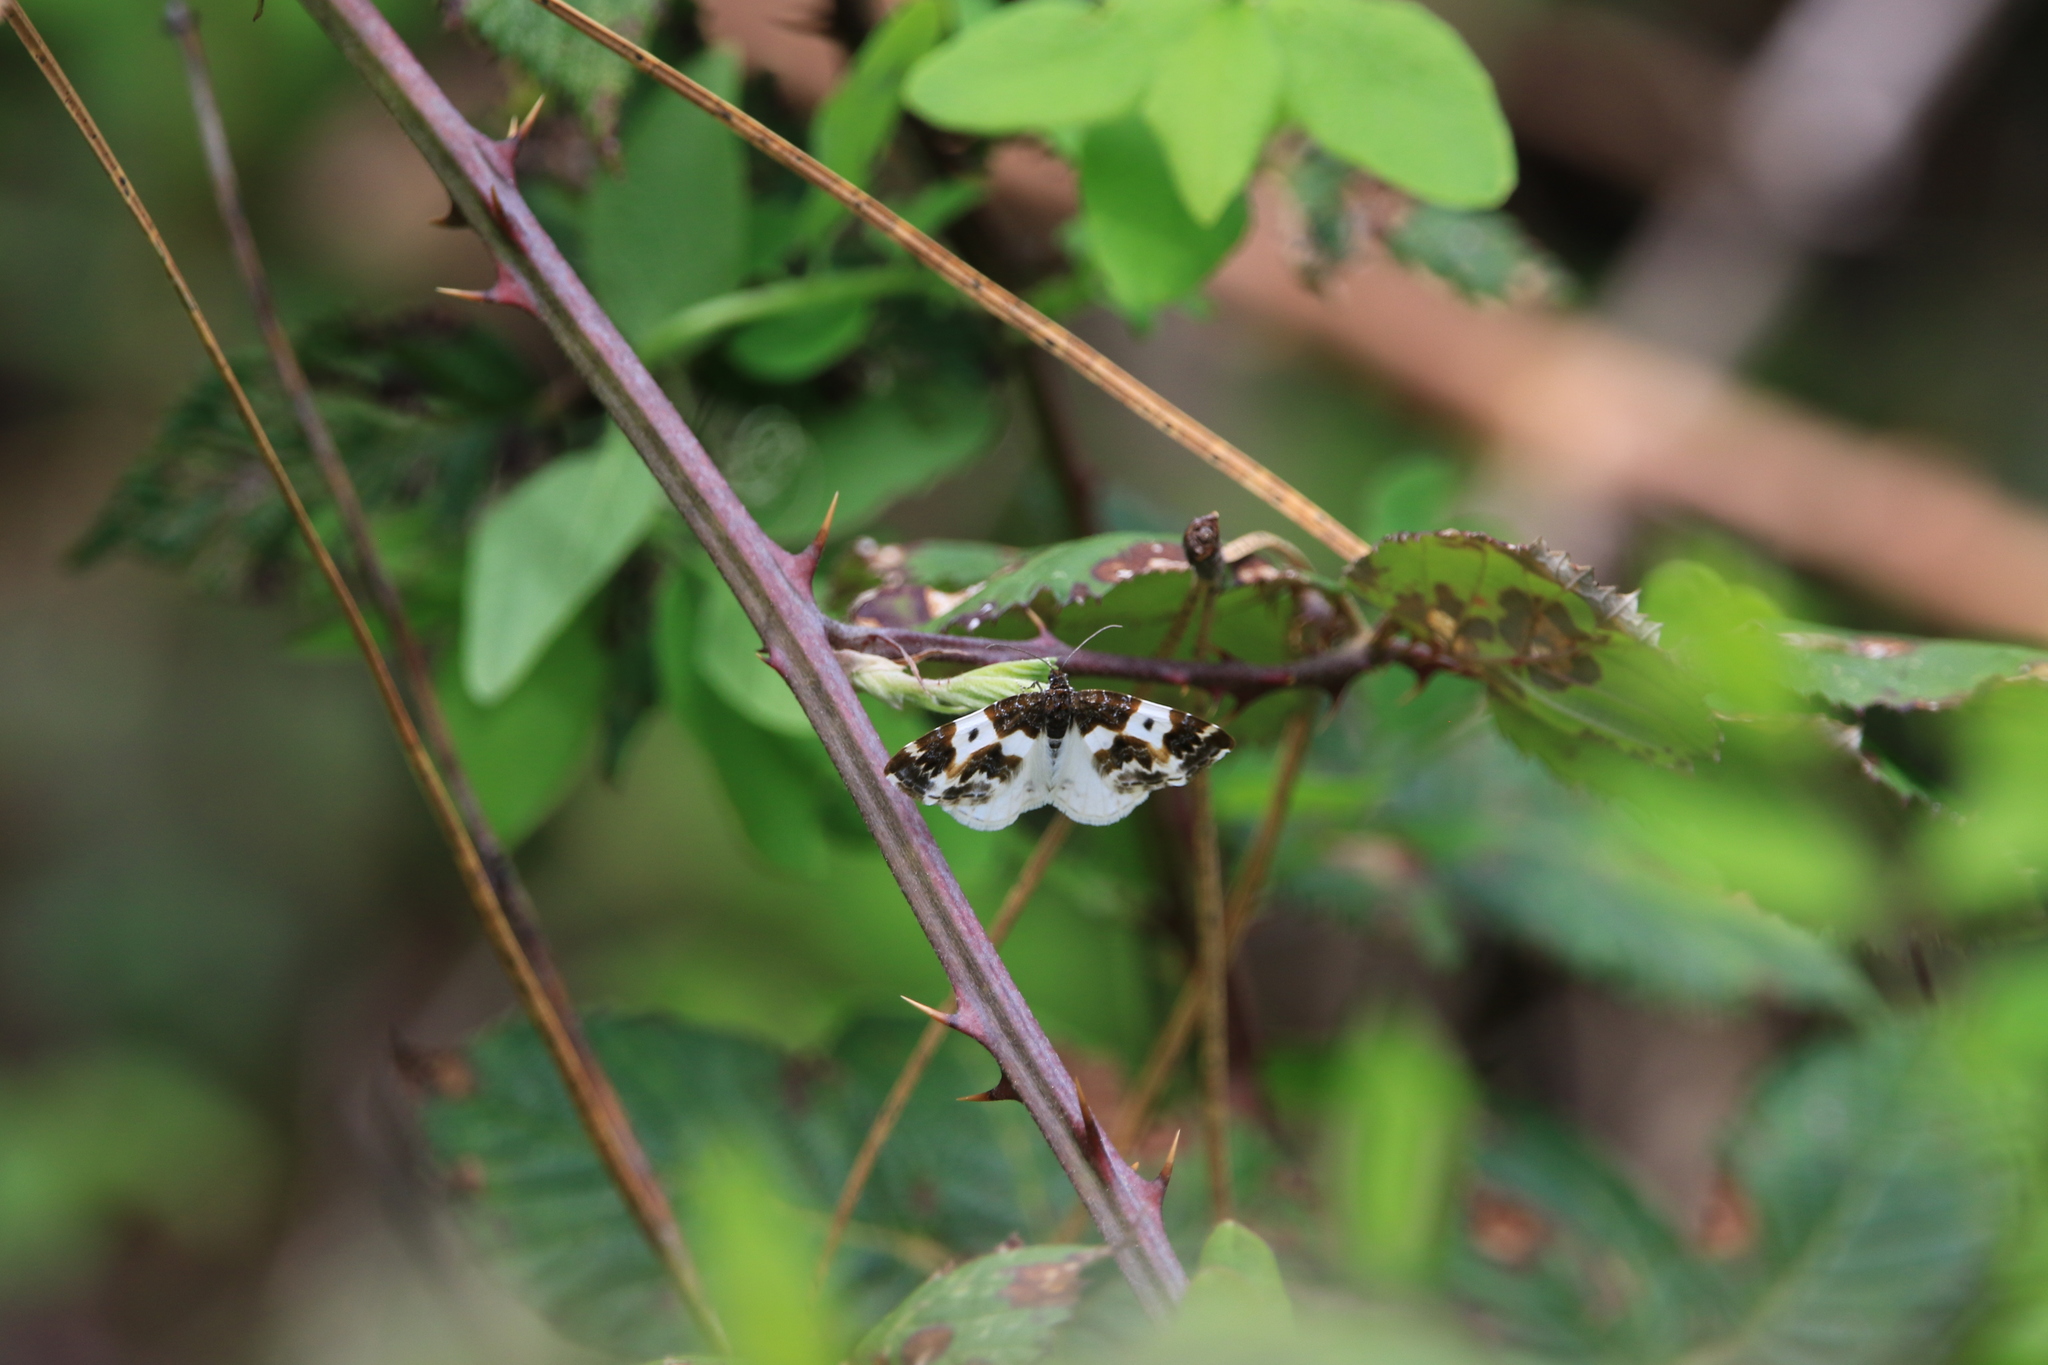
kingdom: Animalia
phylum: Arthropoda
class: Insecta
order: Lepidoptera
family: Geometridae
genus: Mesoleuca
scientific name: Mesoleuca gratulata
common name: Half-white carpet moth
